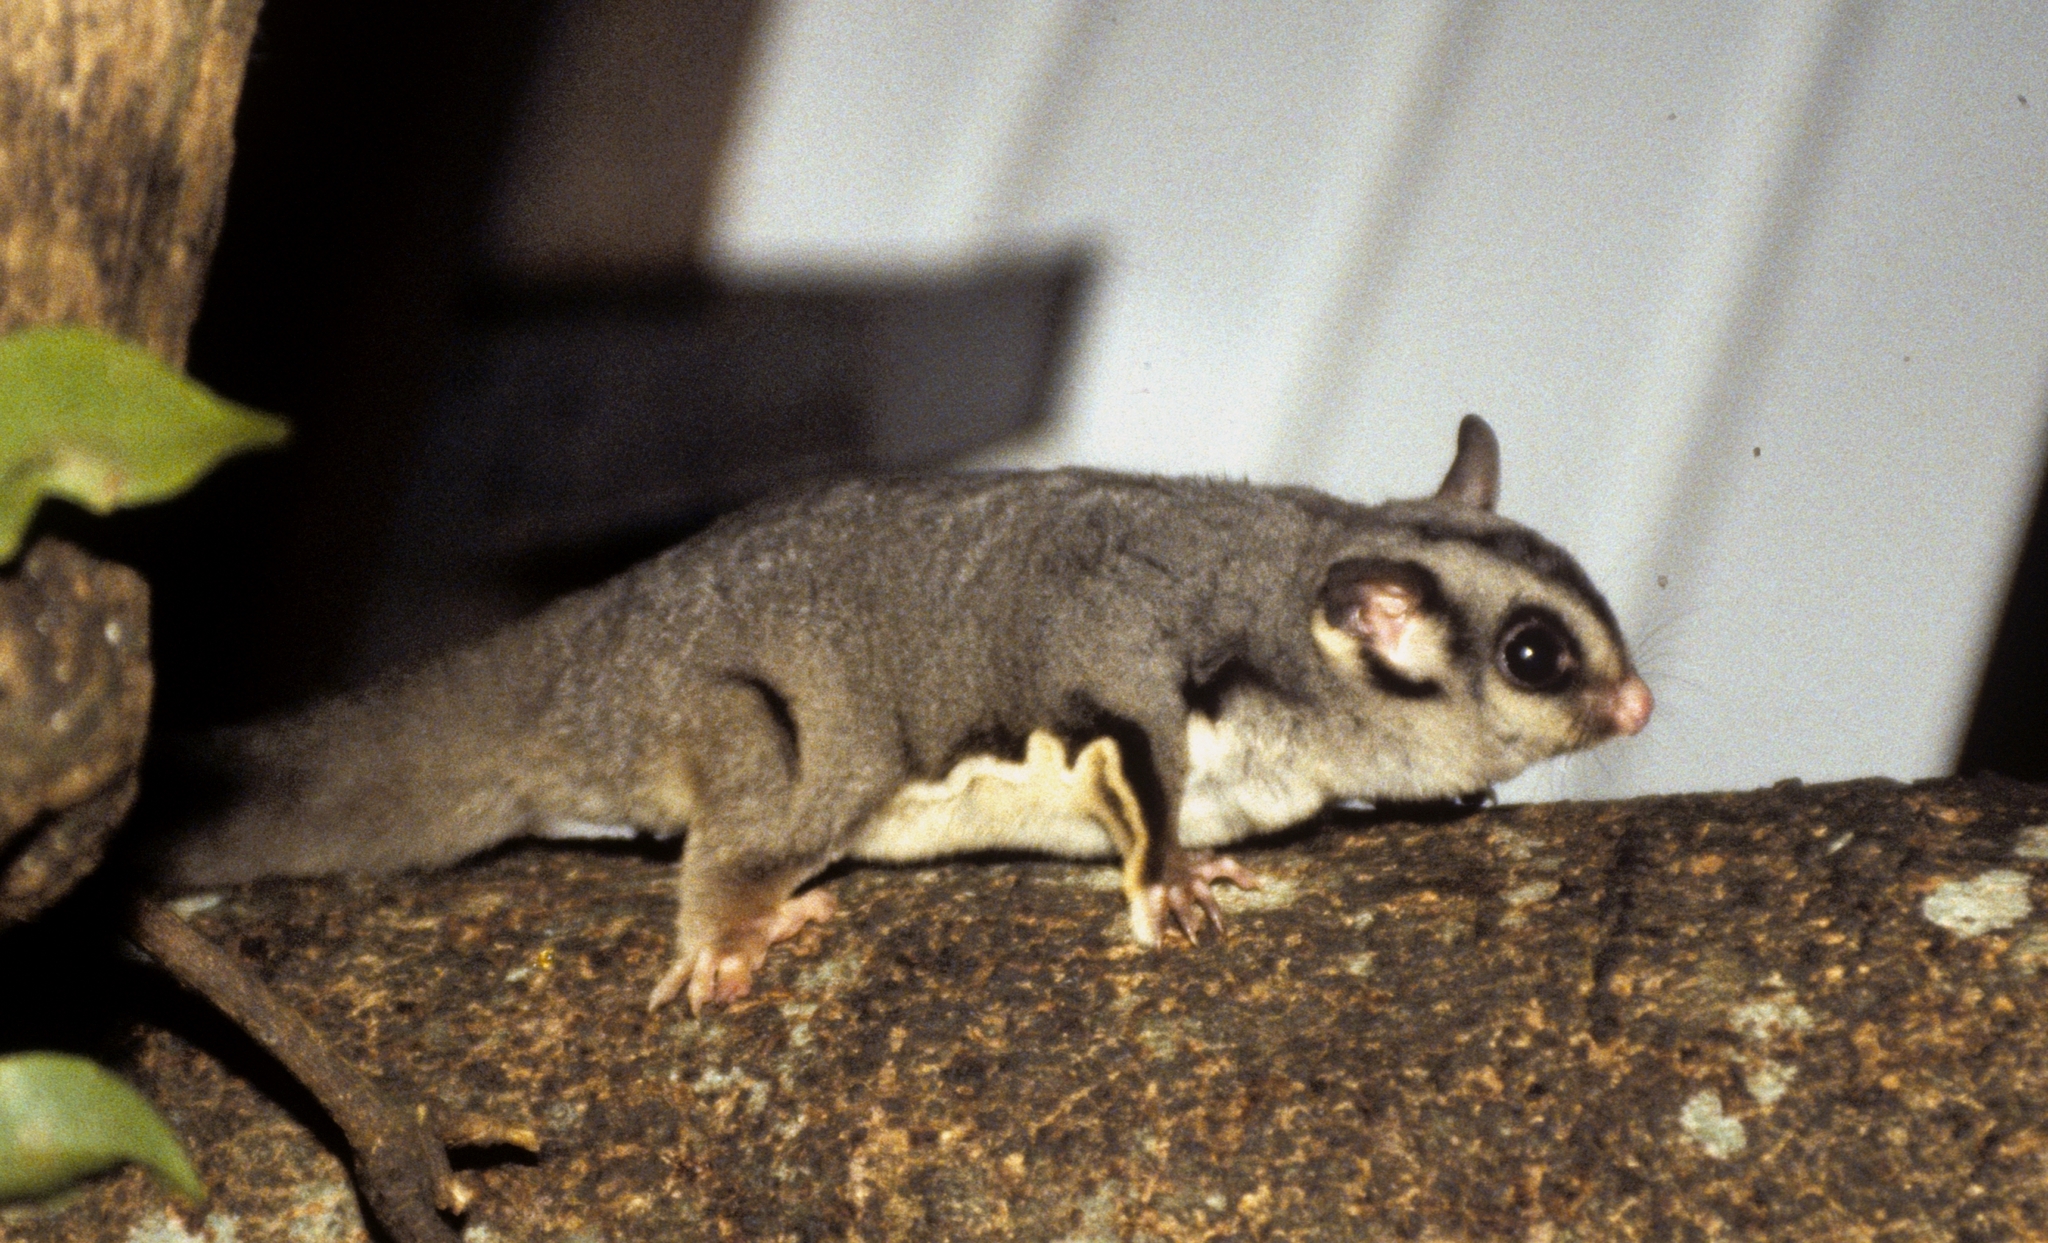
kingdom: Animalia
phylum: Chordata
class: Mammalia
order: Diprotodontia
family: Petauridae
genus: Petaurus
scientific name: Petaurus breviceps
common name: Sugar glider
